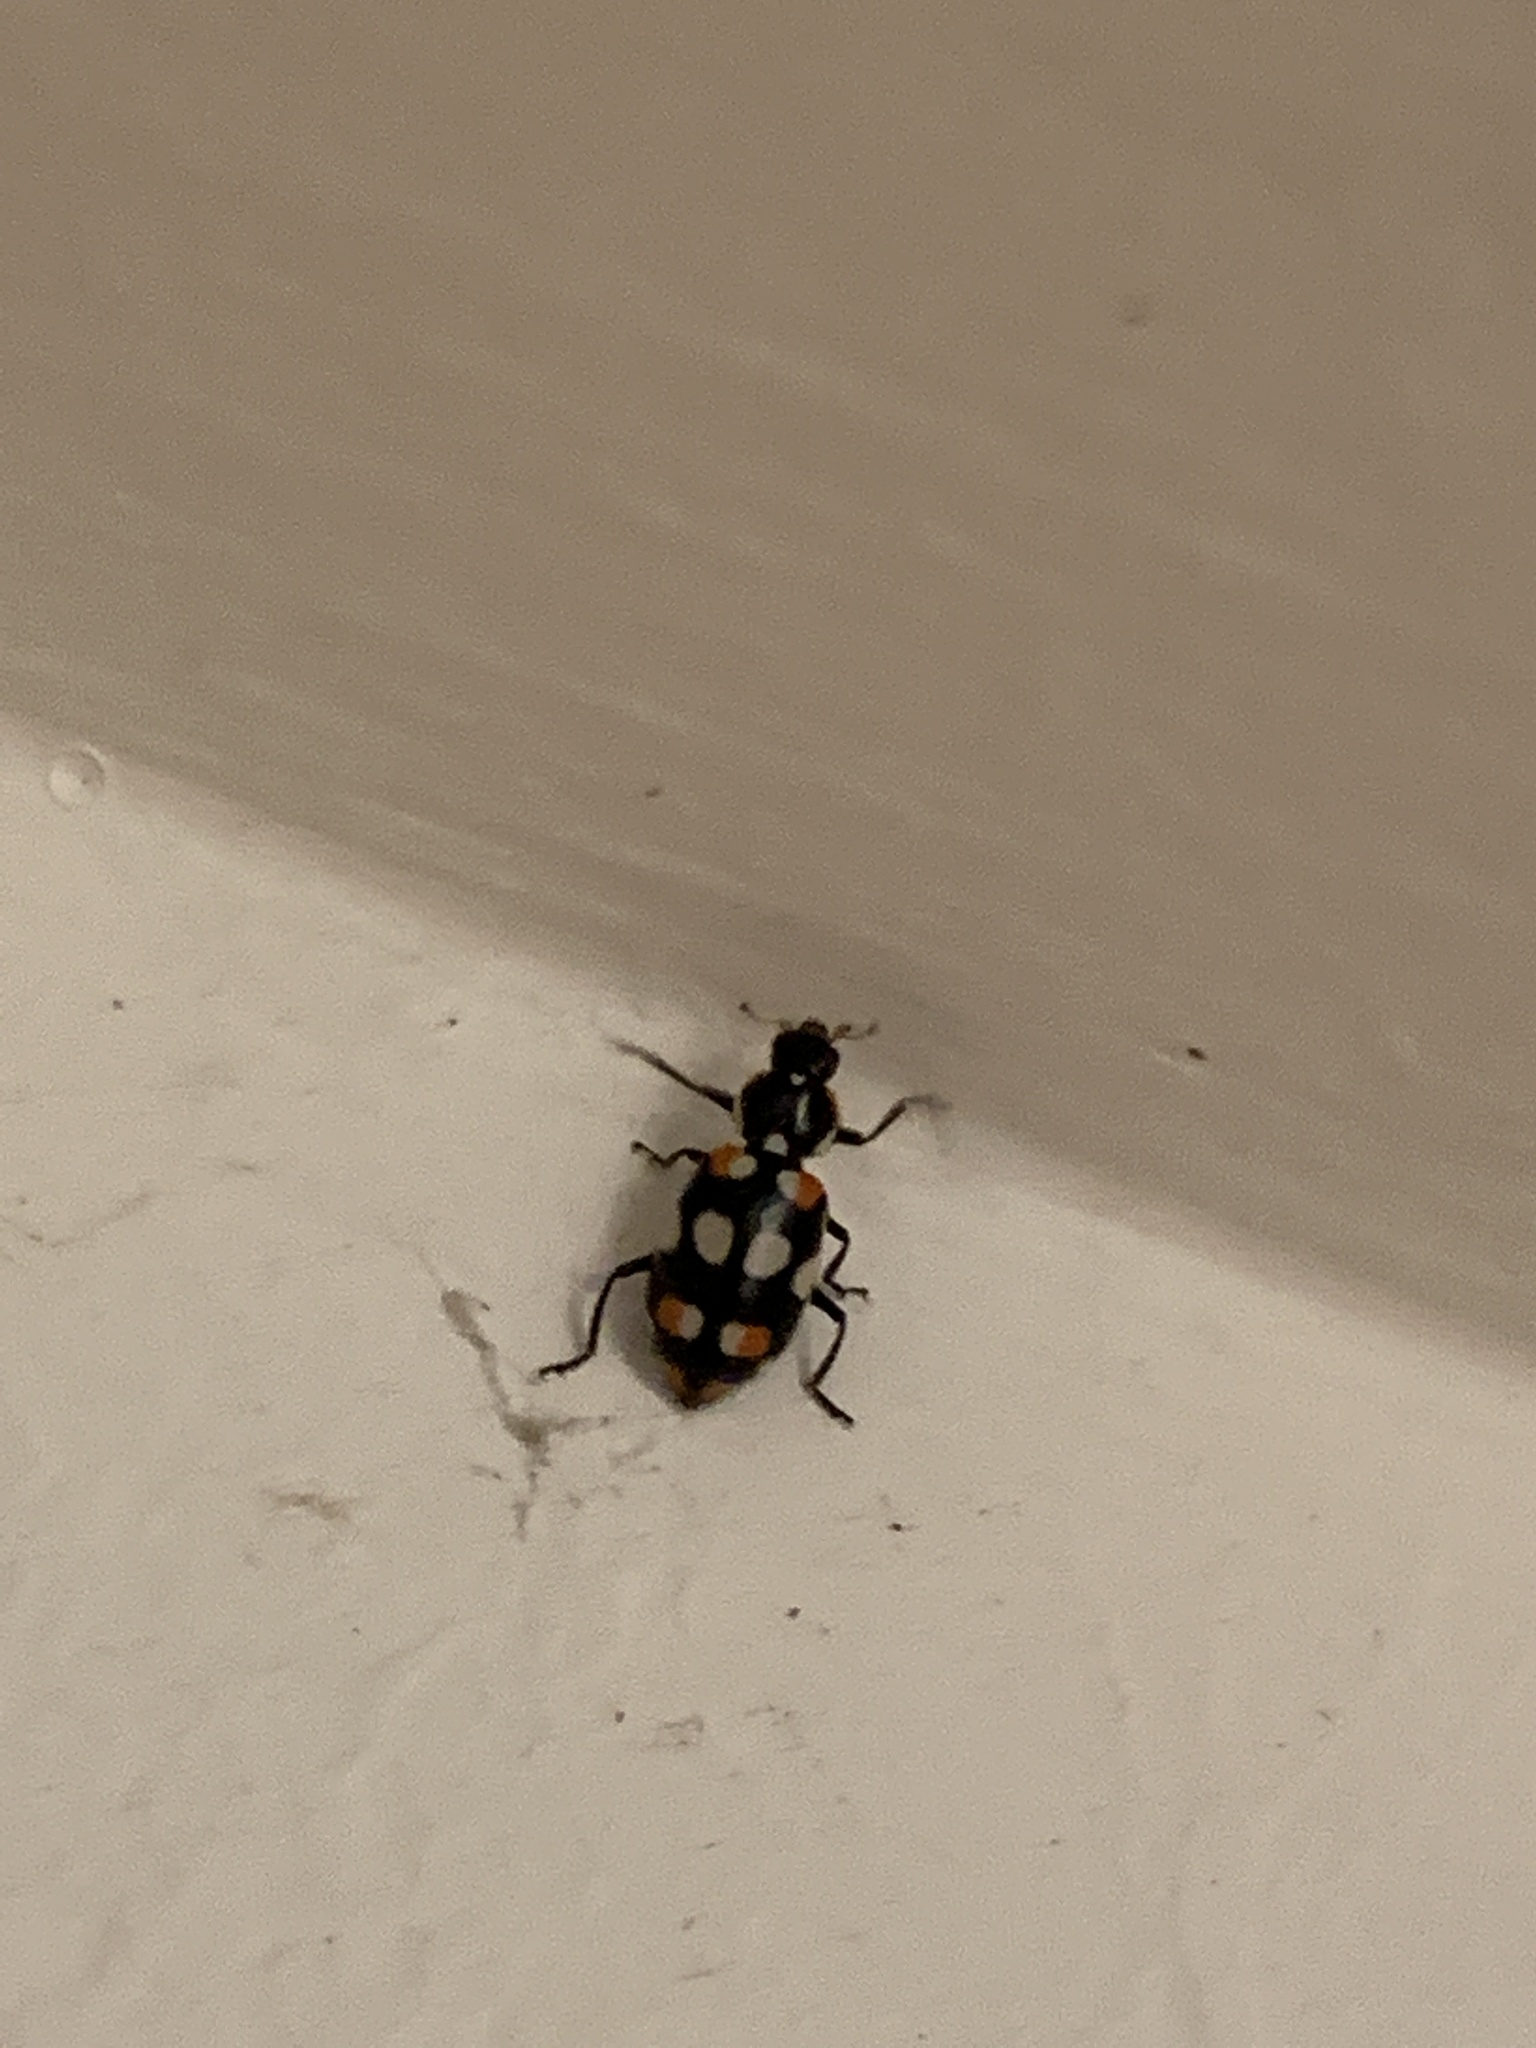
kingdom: Animalia
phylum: Arthropoda
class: Insecta
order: Coleoptera
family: Coccinellidae
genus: Eriopis
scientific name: Eriopis connexa
